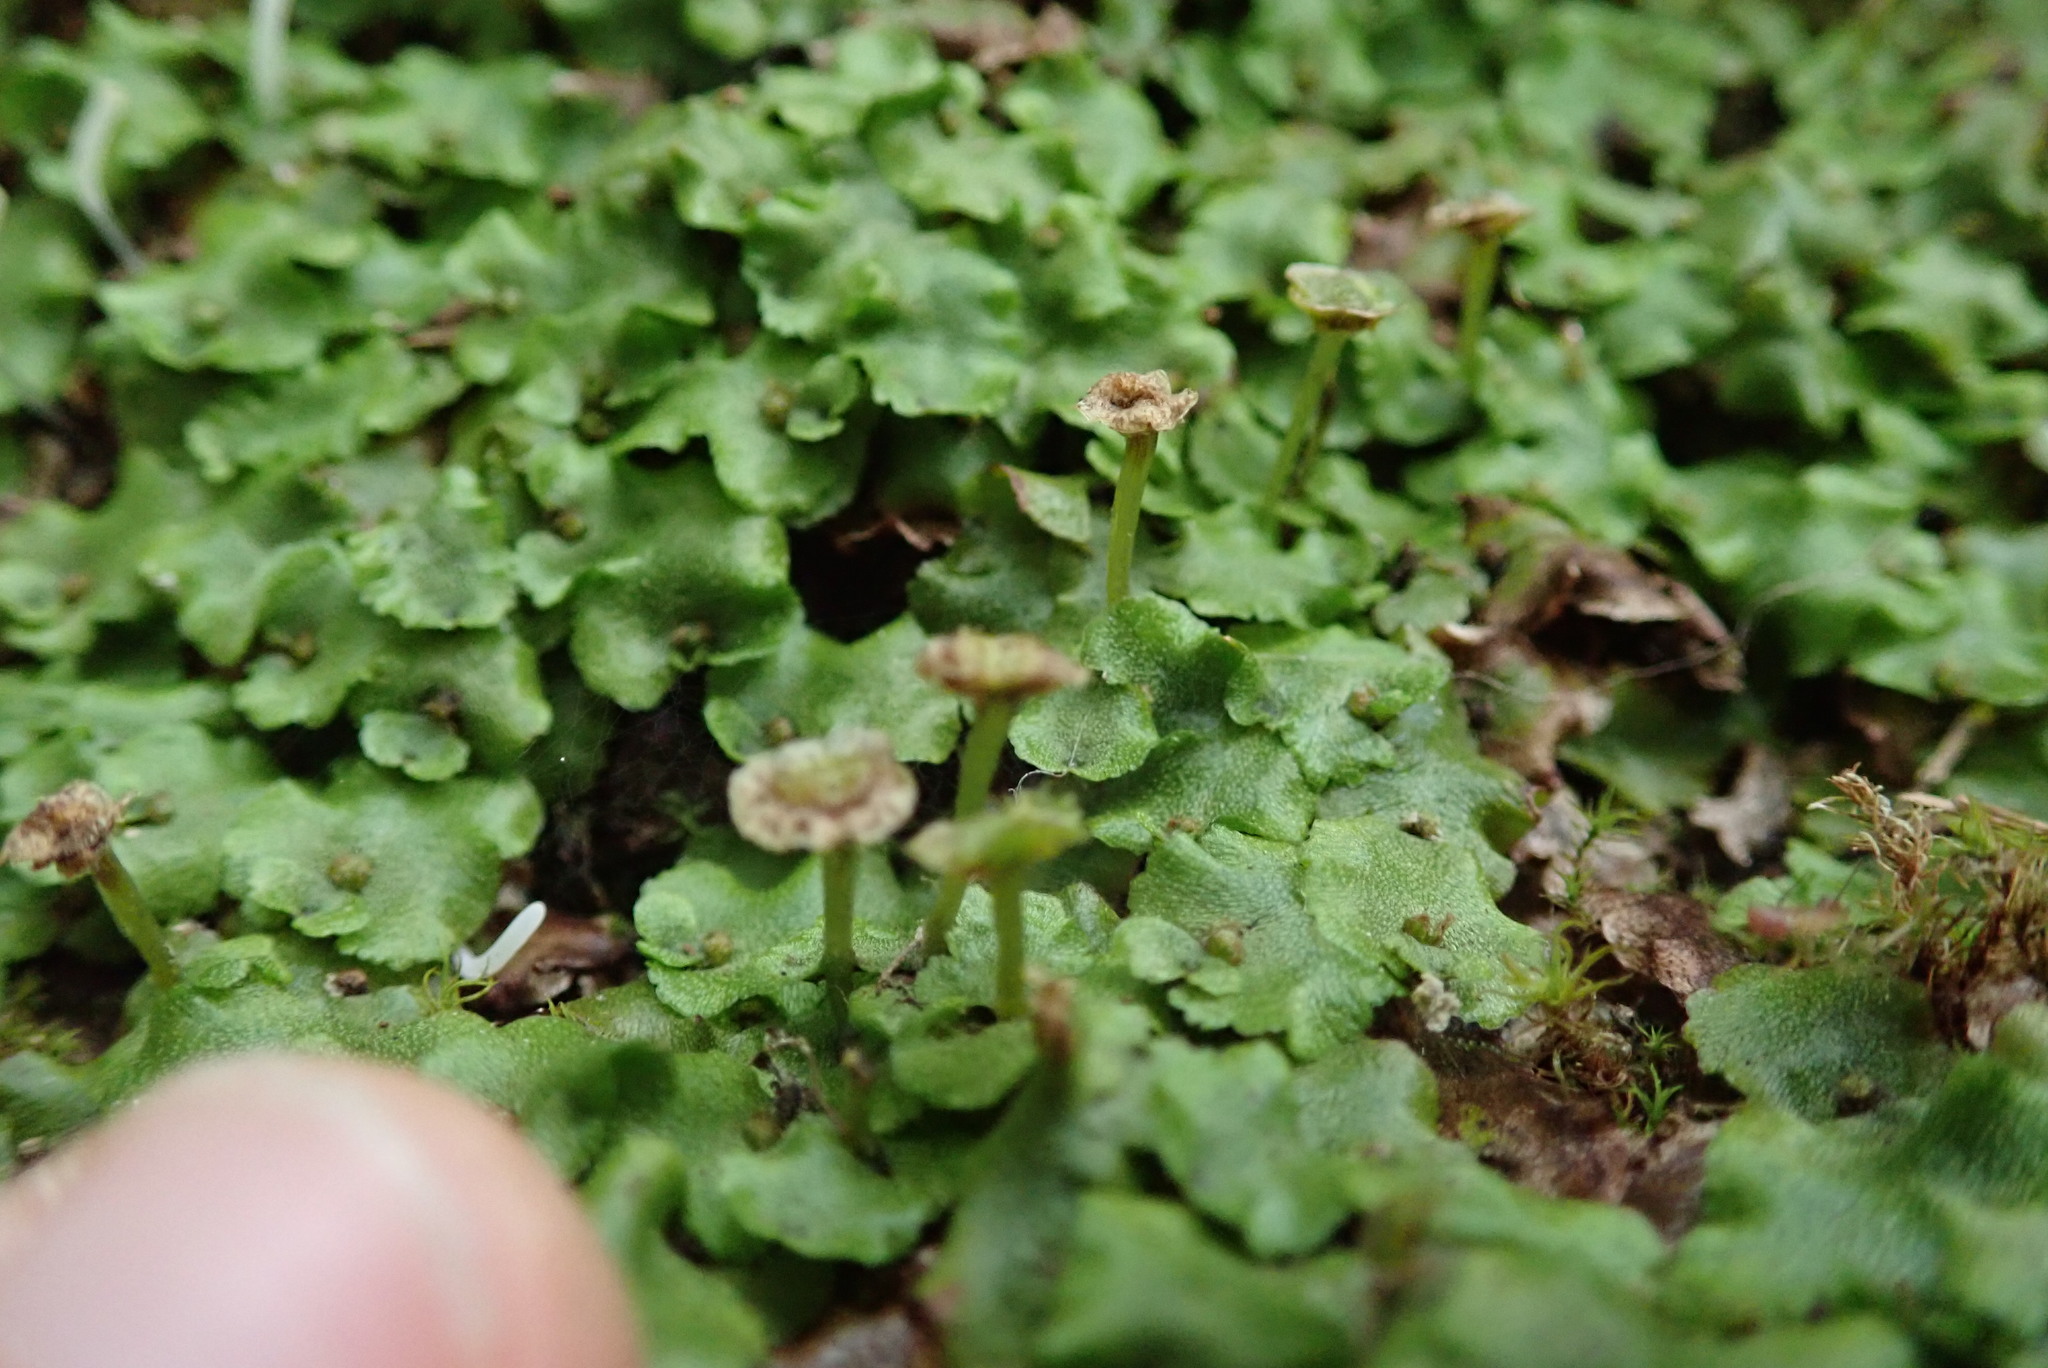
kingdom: Plantae
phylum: Marchantiophyta
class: Marchantiopsida
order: Marchantiales
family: Marchantiaceae
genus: Marchantia
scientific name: Marchantia quadrata
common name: Narrow mushroom-headed liverwort
